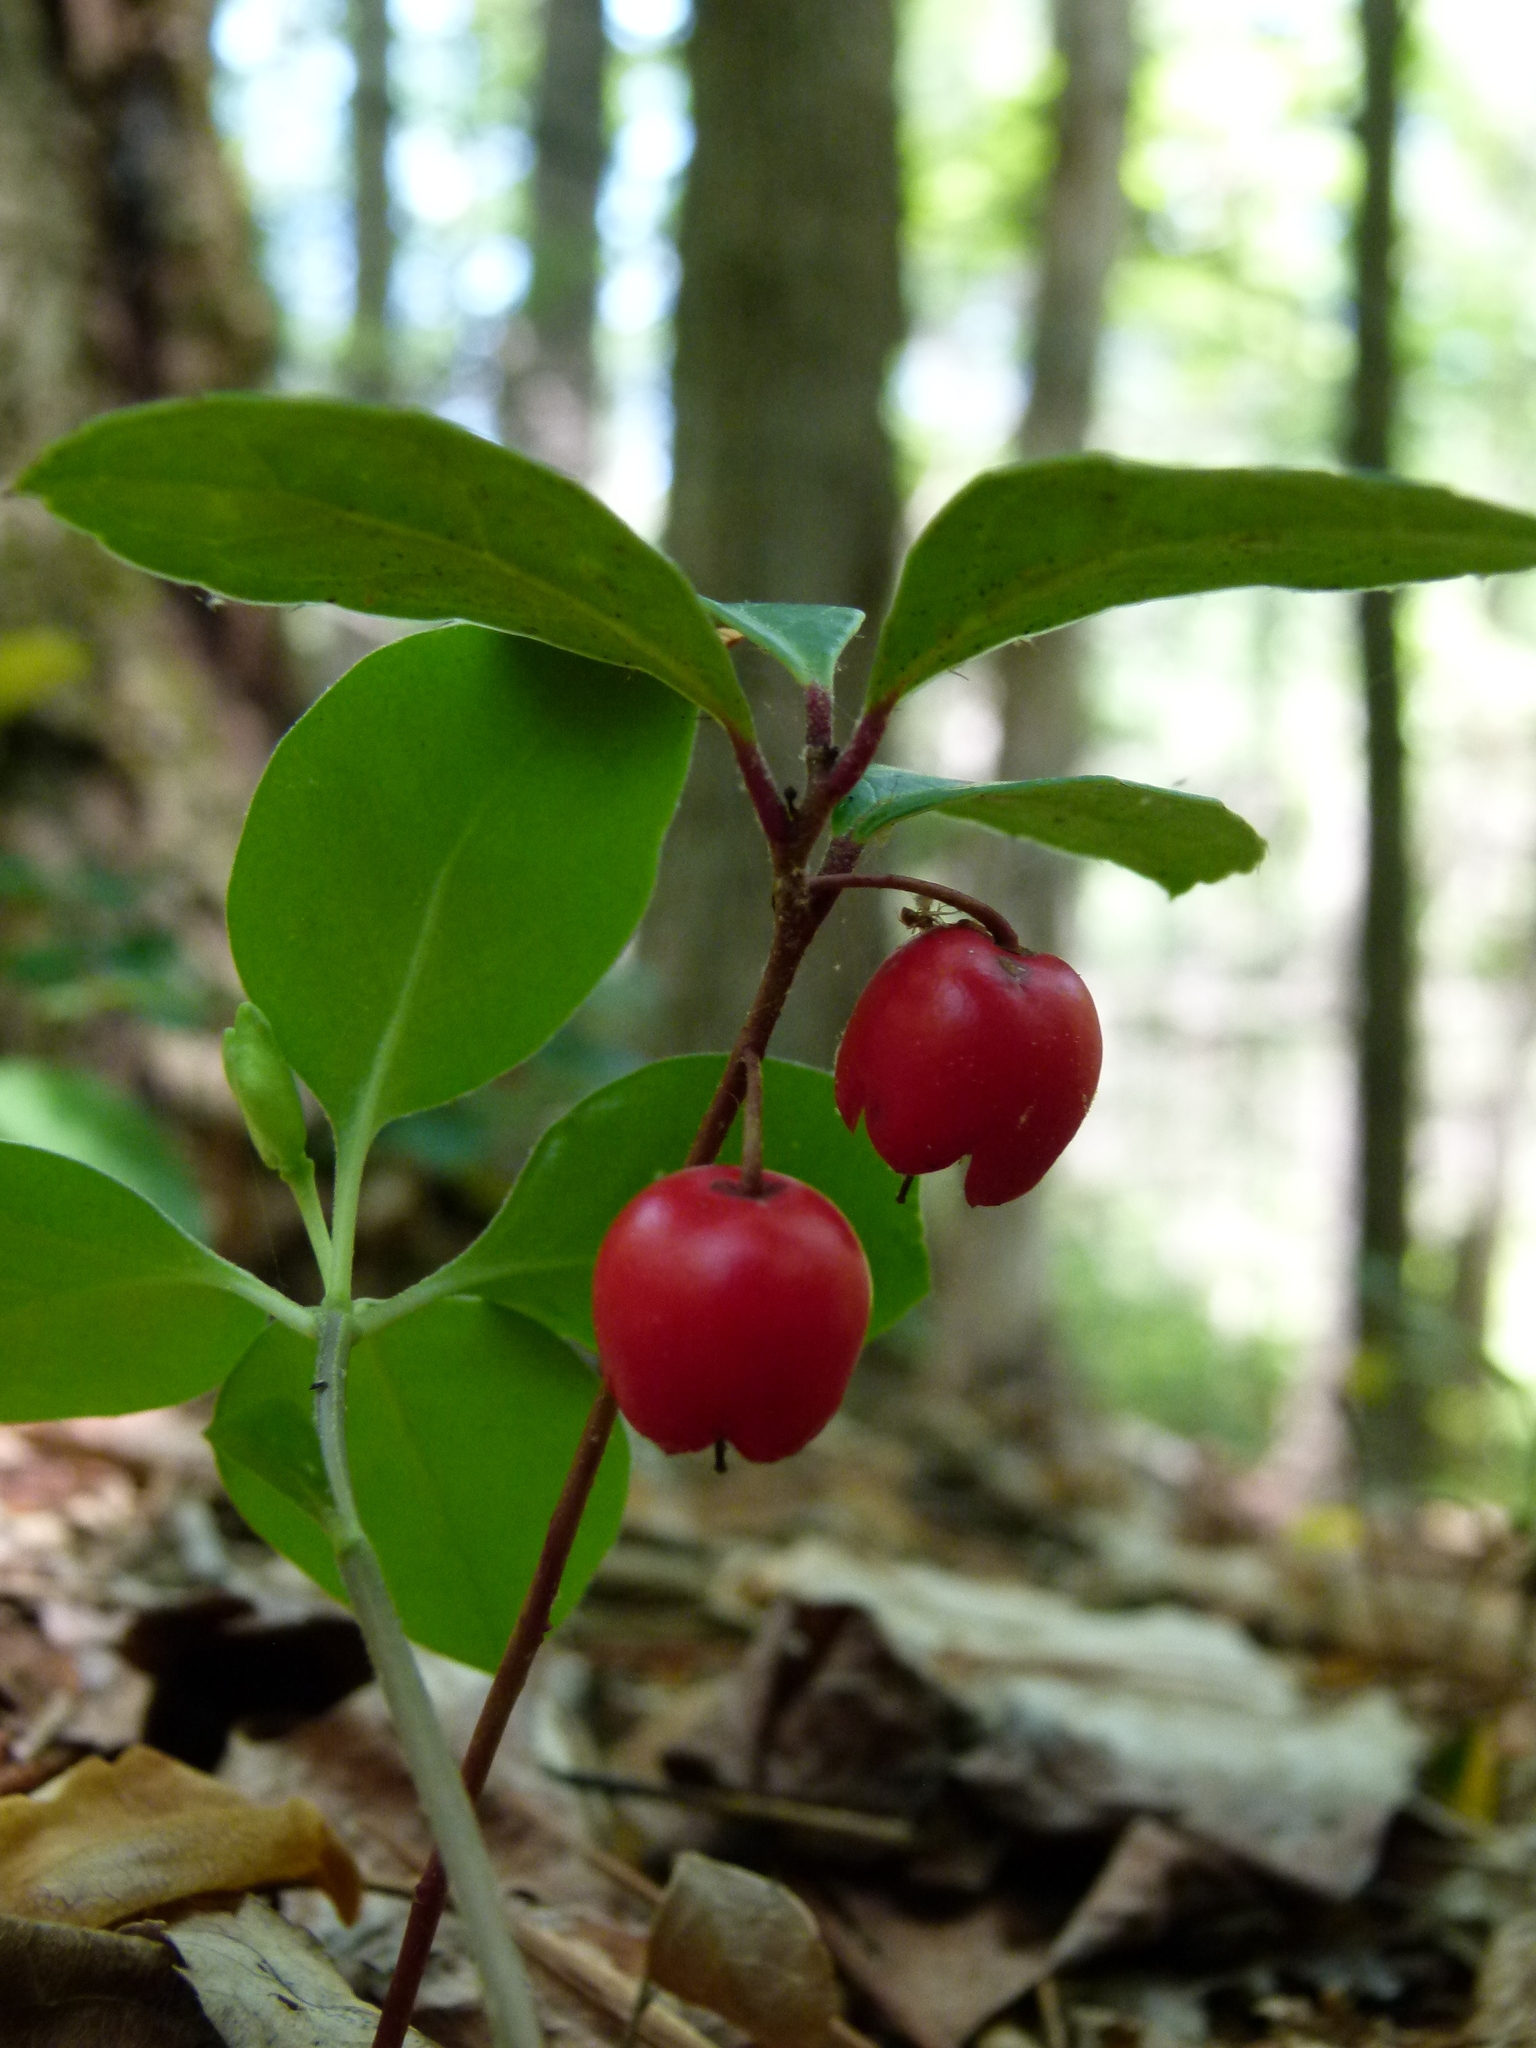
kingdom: Plantae
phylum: Tracheophyta
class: Magnoliopsida
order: Ericales
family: Ericaceae
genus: Gaultheria
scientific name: Gaultheria procumbens
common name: Checkerberry
